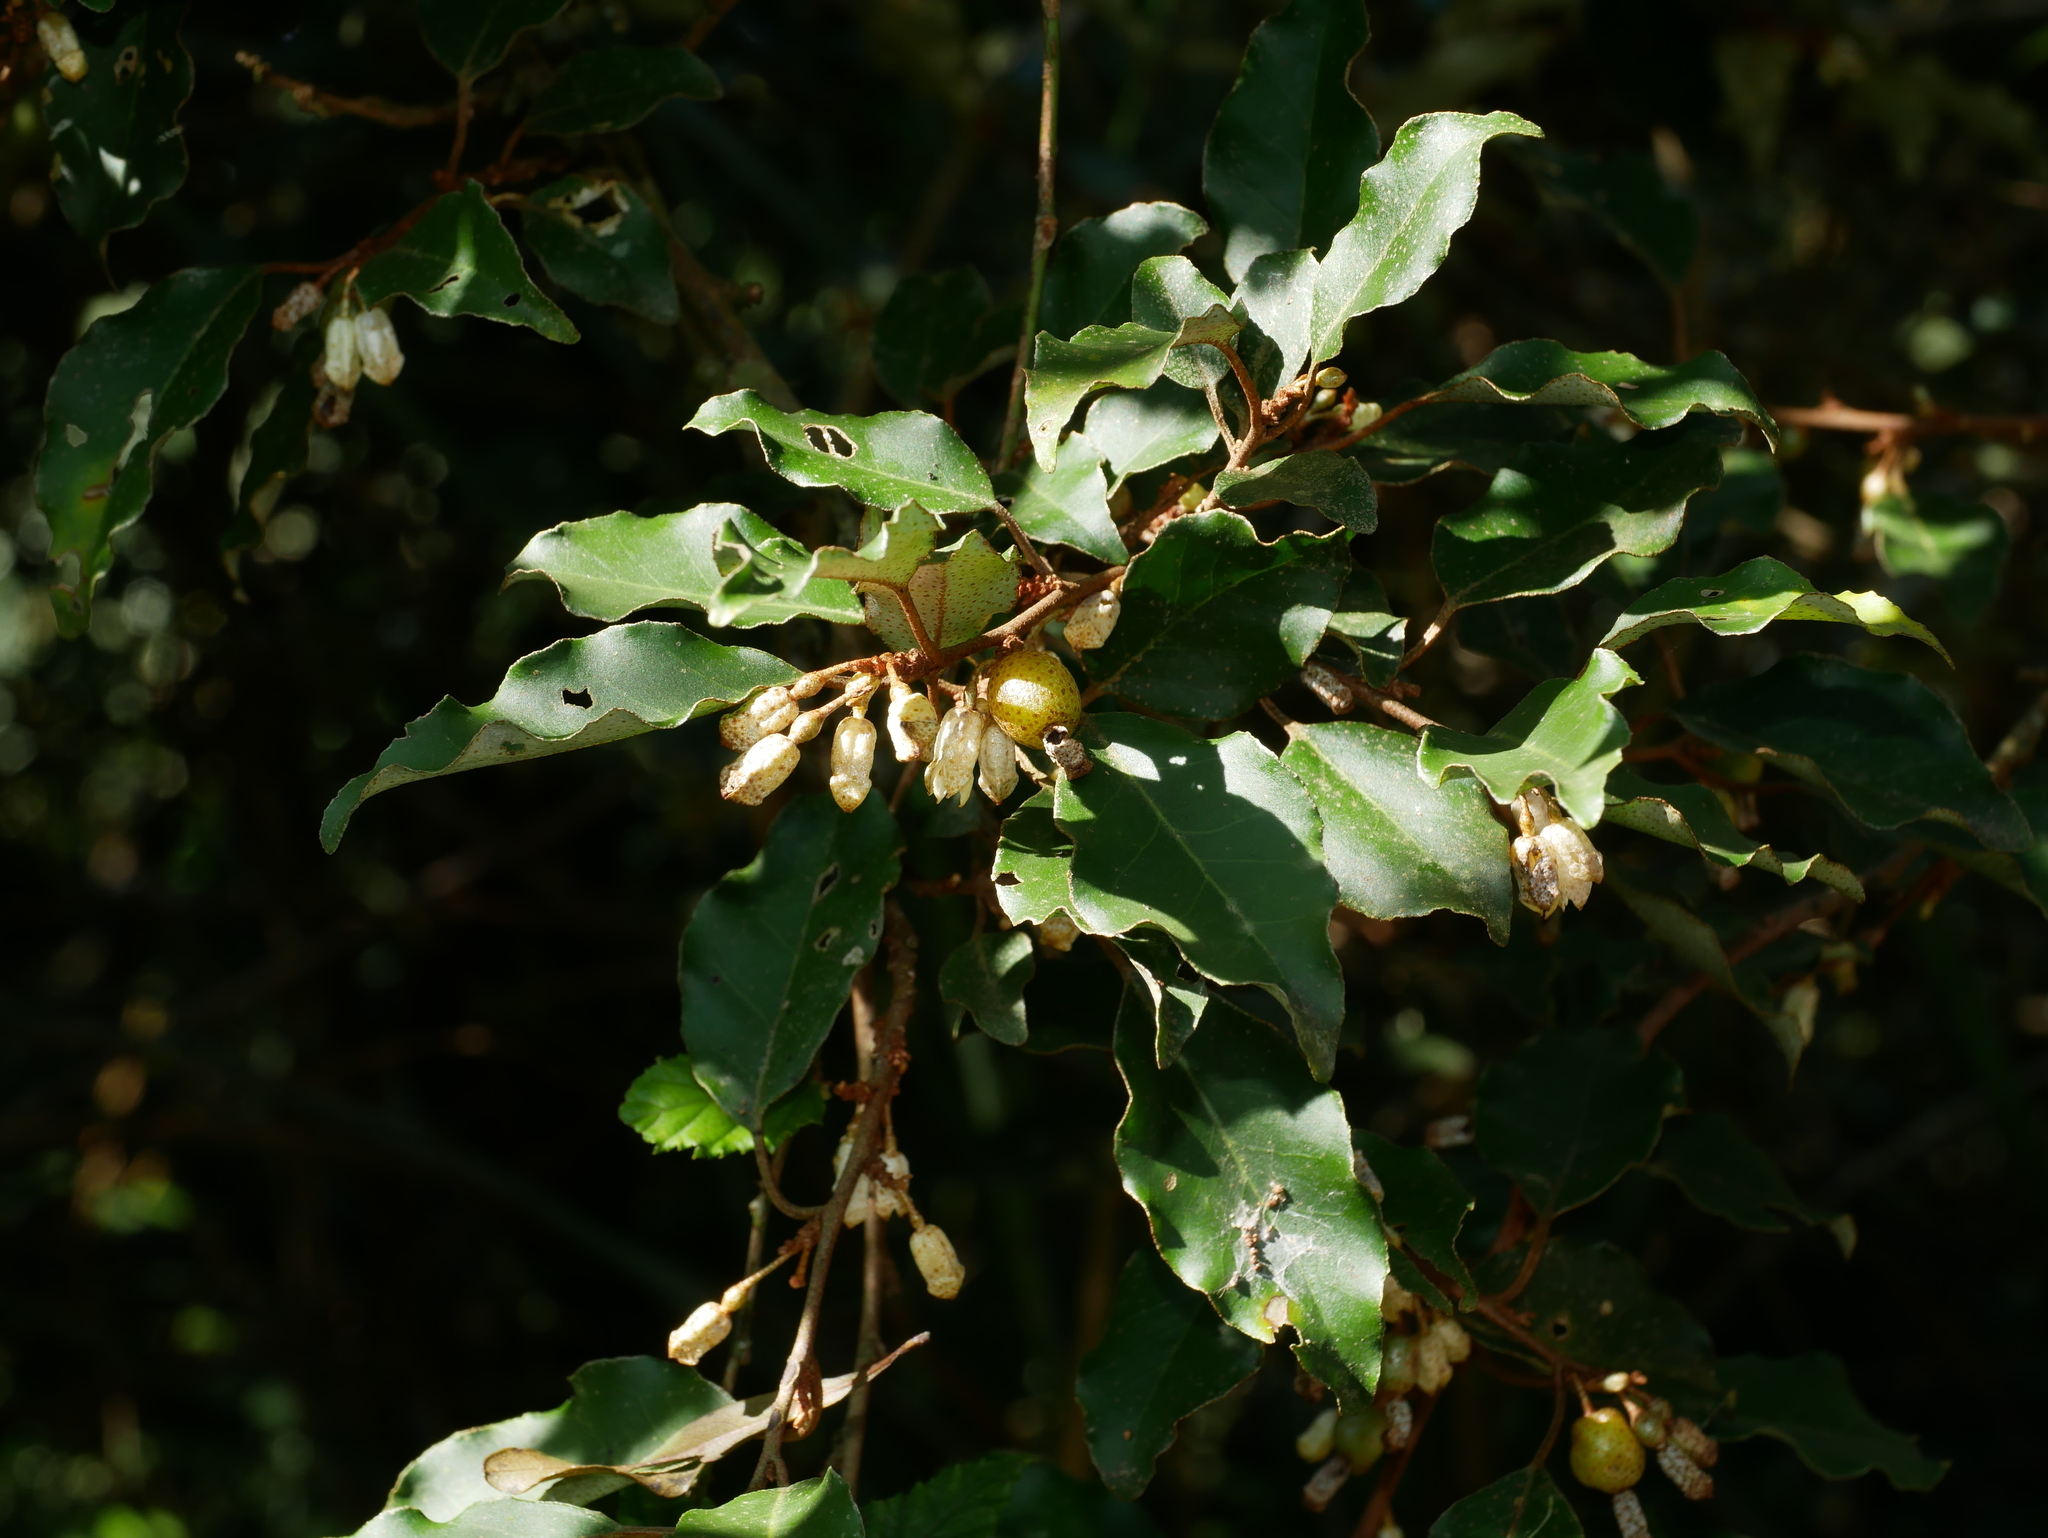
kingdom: Plantae
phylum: Tracheophyta
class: Magnoliopsida
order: Rosales
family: Elaeagnaceae
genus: Elaeagnus
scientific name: Elaeagnus thunbergii
